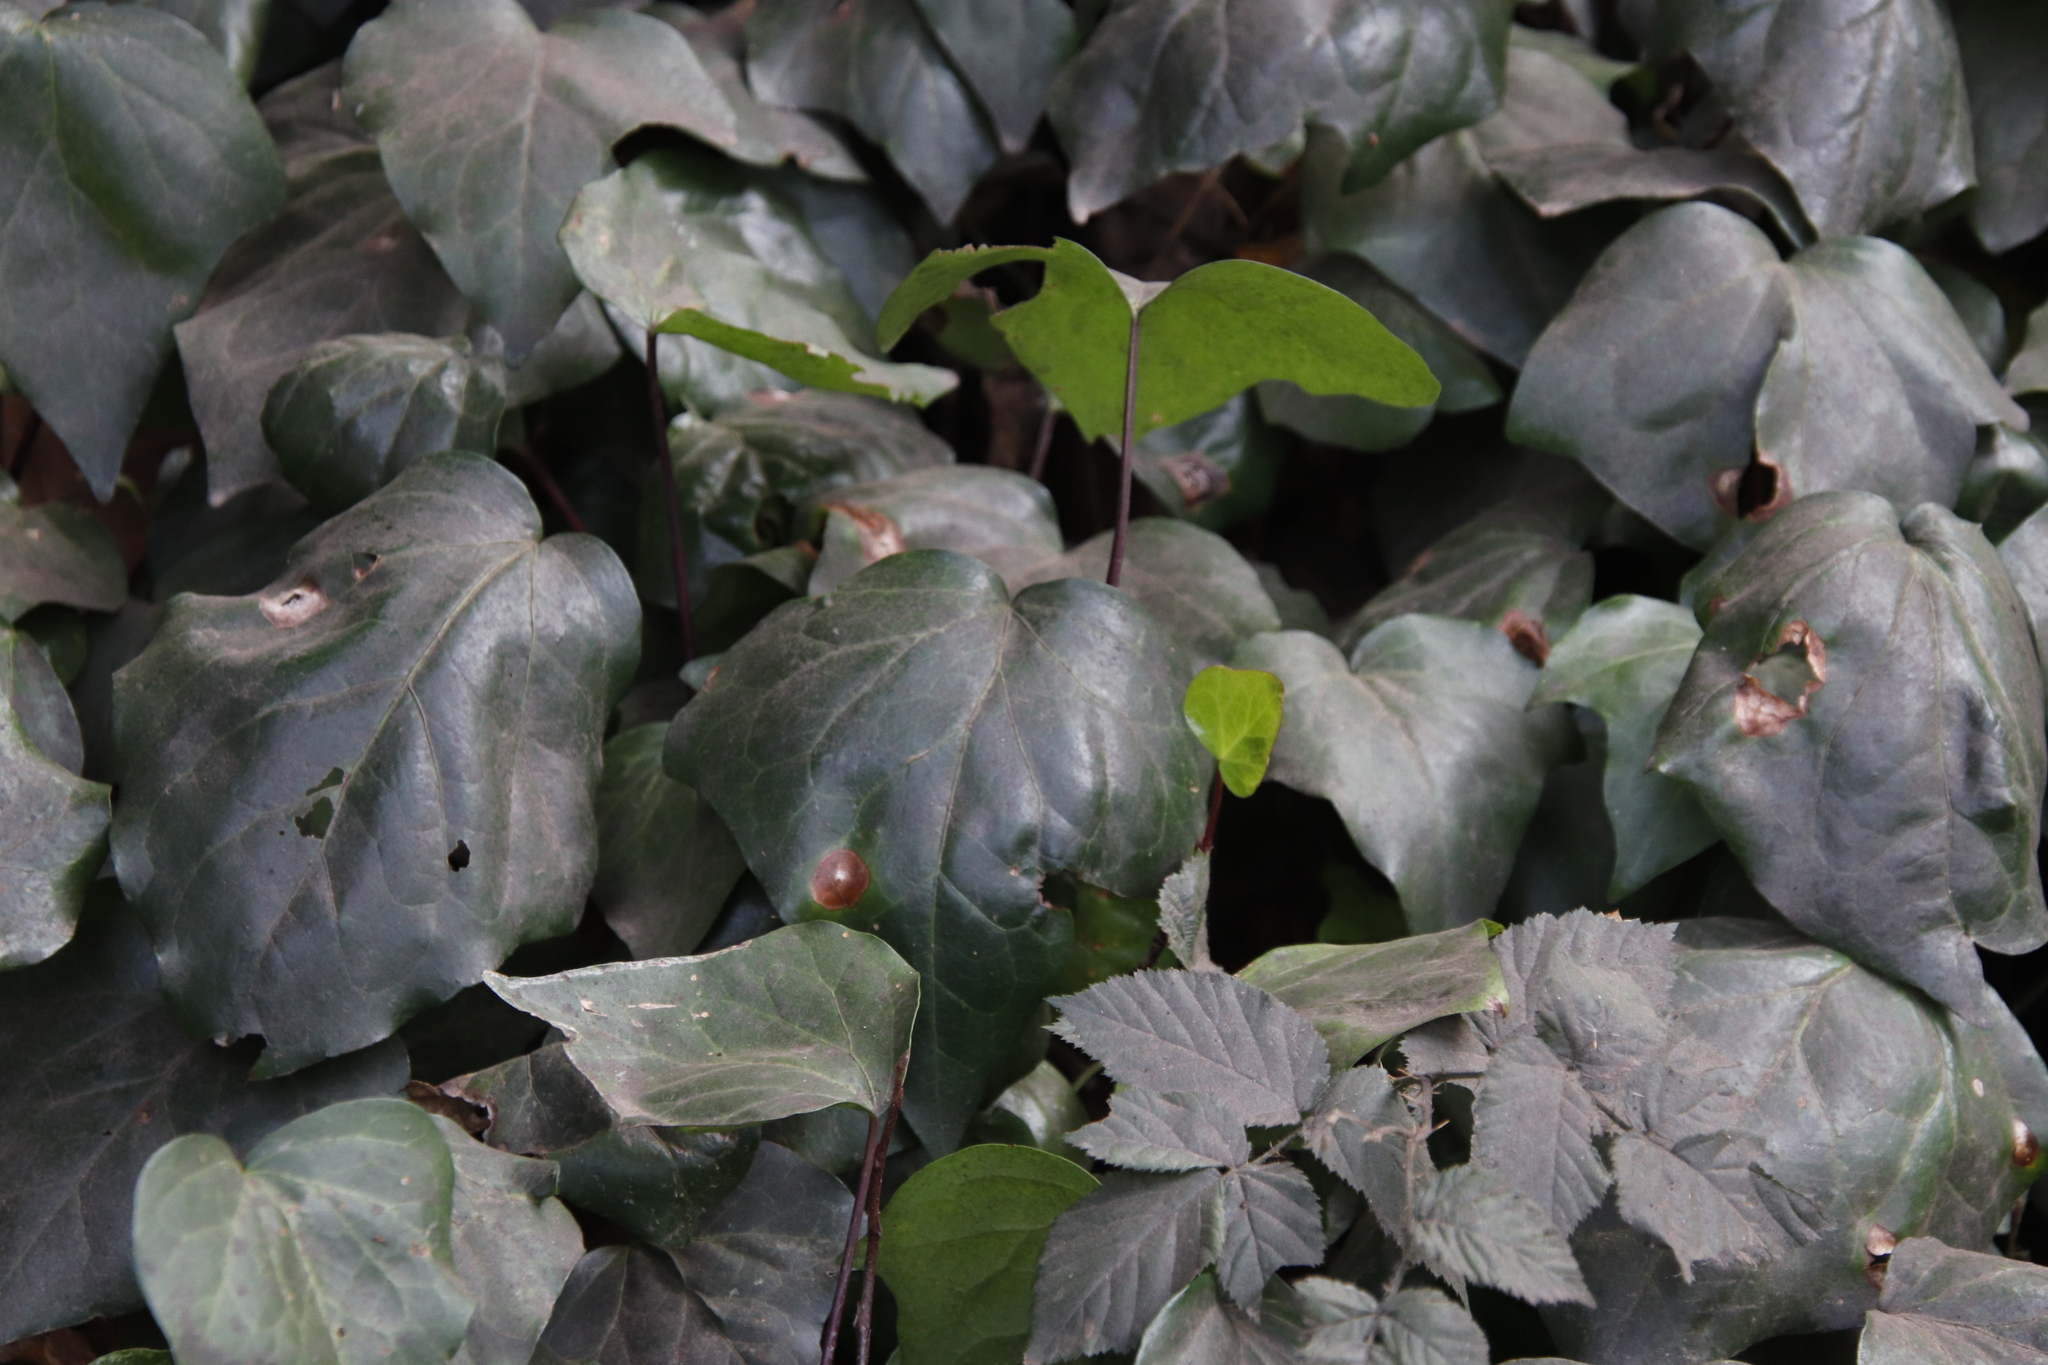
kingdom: Plantae
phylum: Tracheophyta
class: Magnoliopsida
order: Apiales
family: Araliaceae
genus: Hedera
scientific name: Hedera canariensis
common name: Madeira ivy
